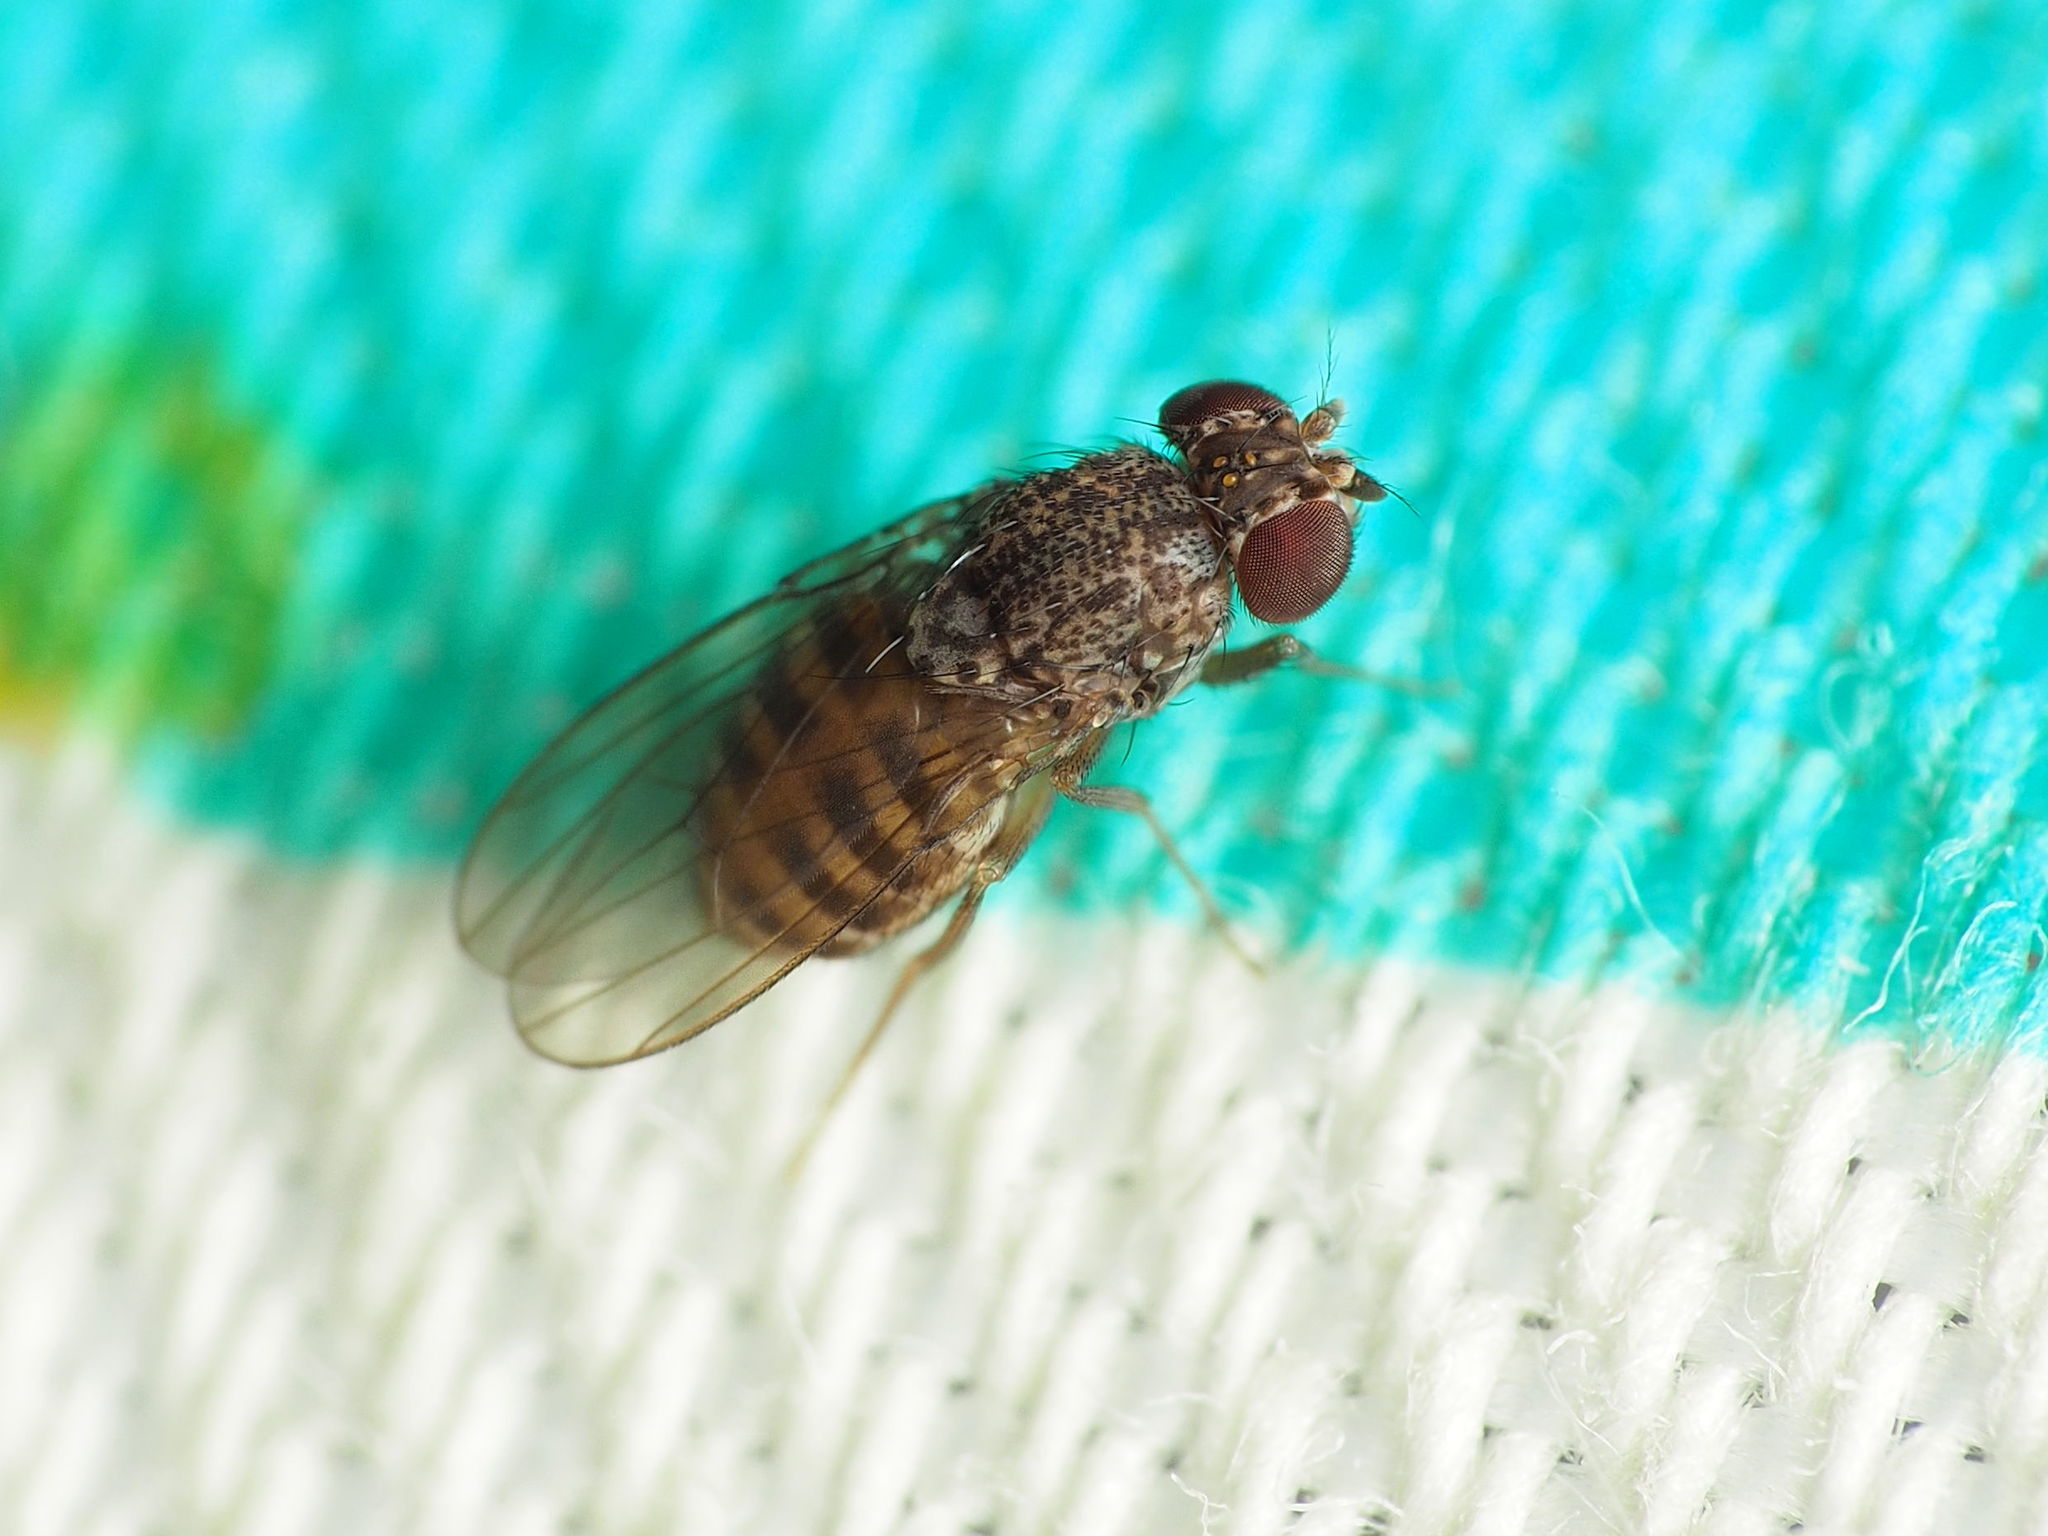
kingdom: Animalia
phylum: Arthropoda
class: Insecta
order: Diptera
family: Drosophilidae
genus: Drosophila
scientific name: Drosophila repleta
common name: Pomace fly
